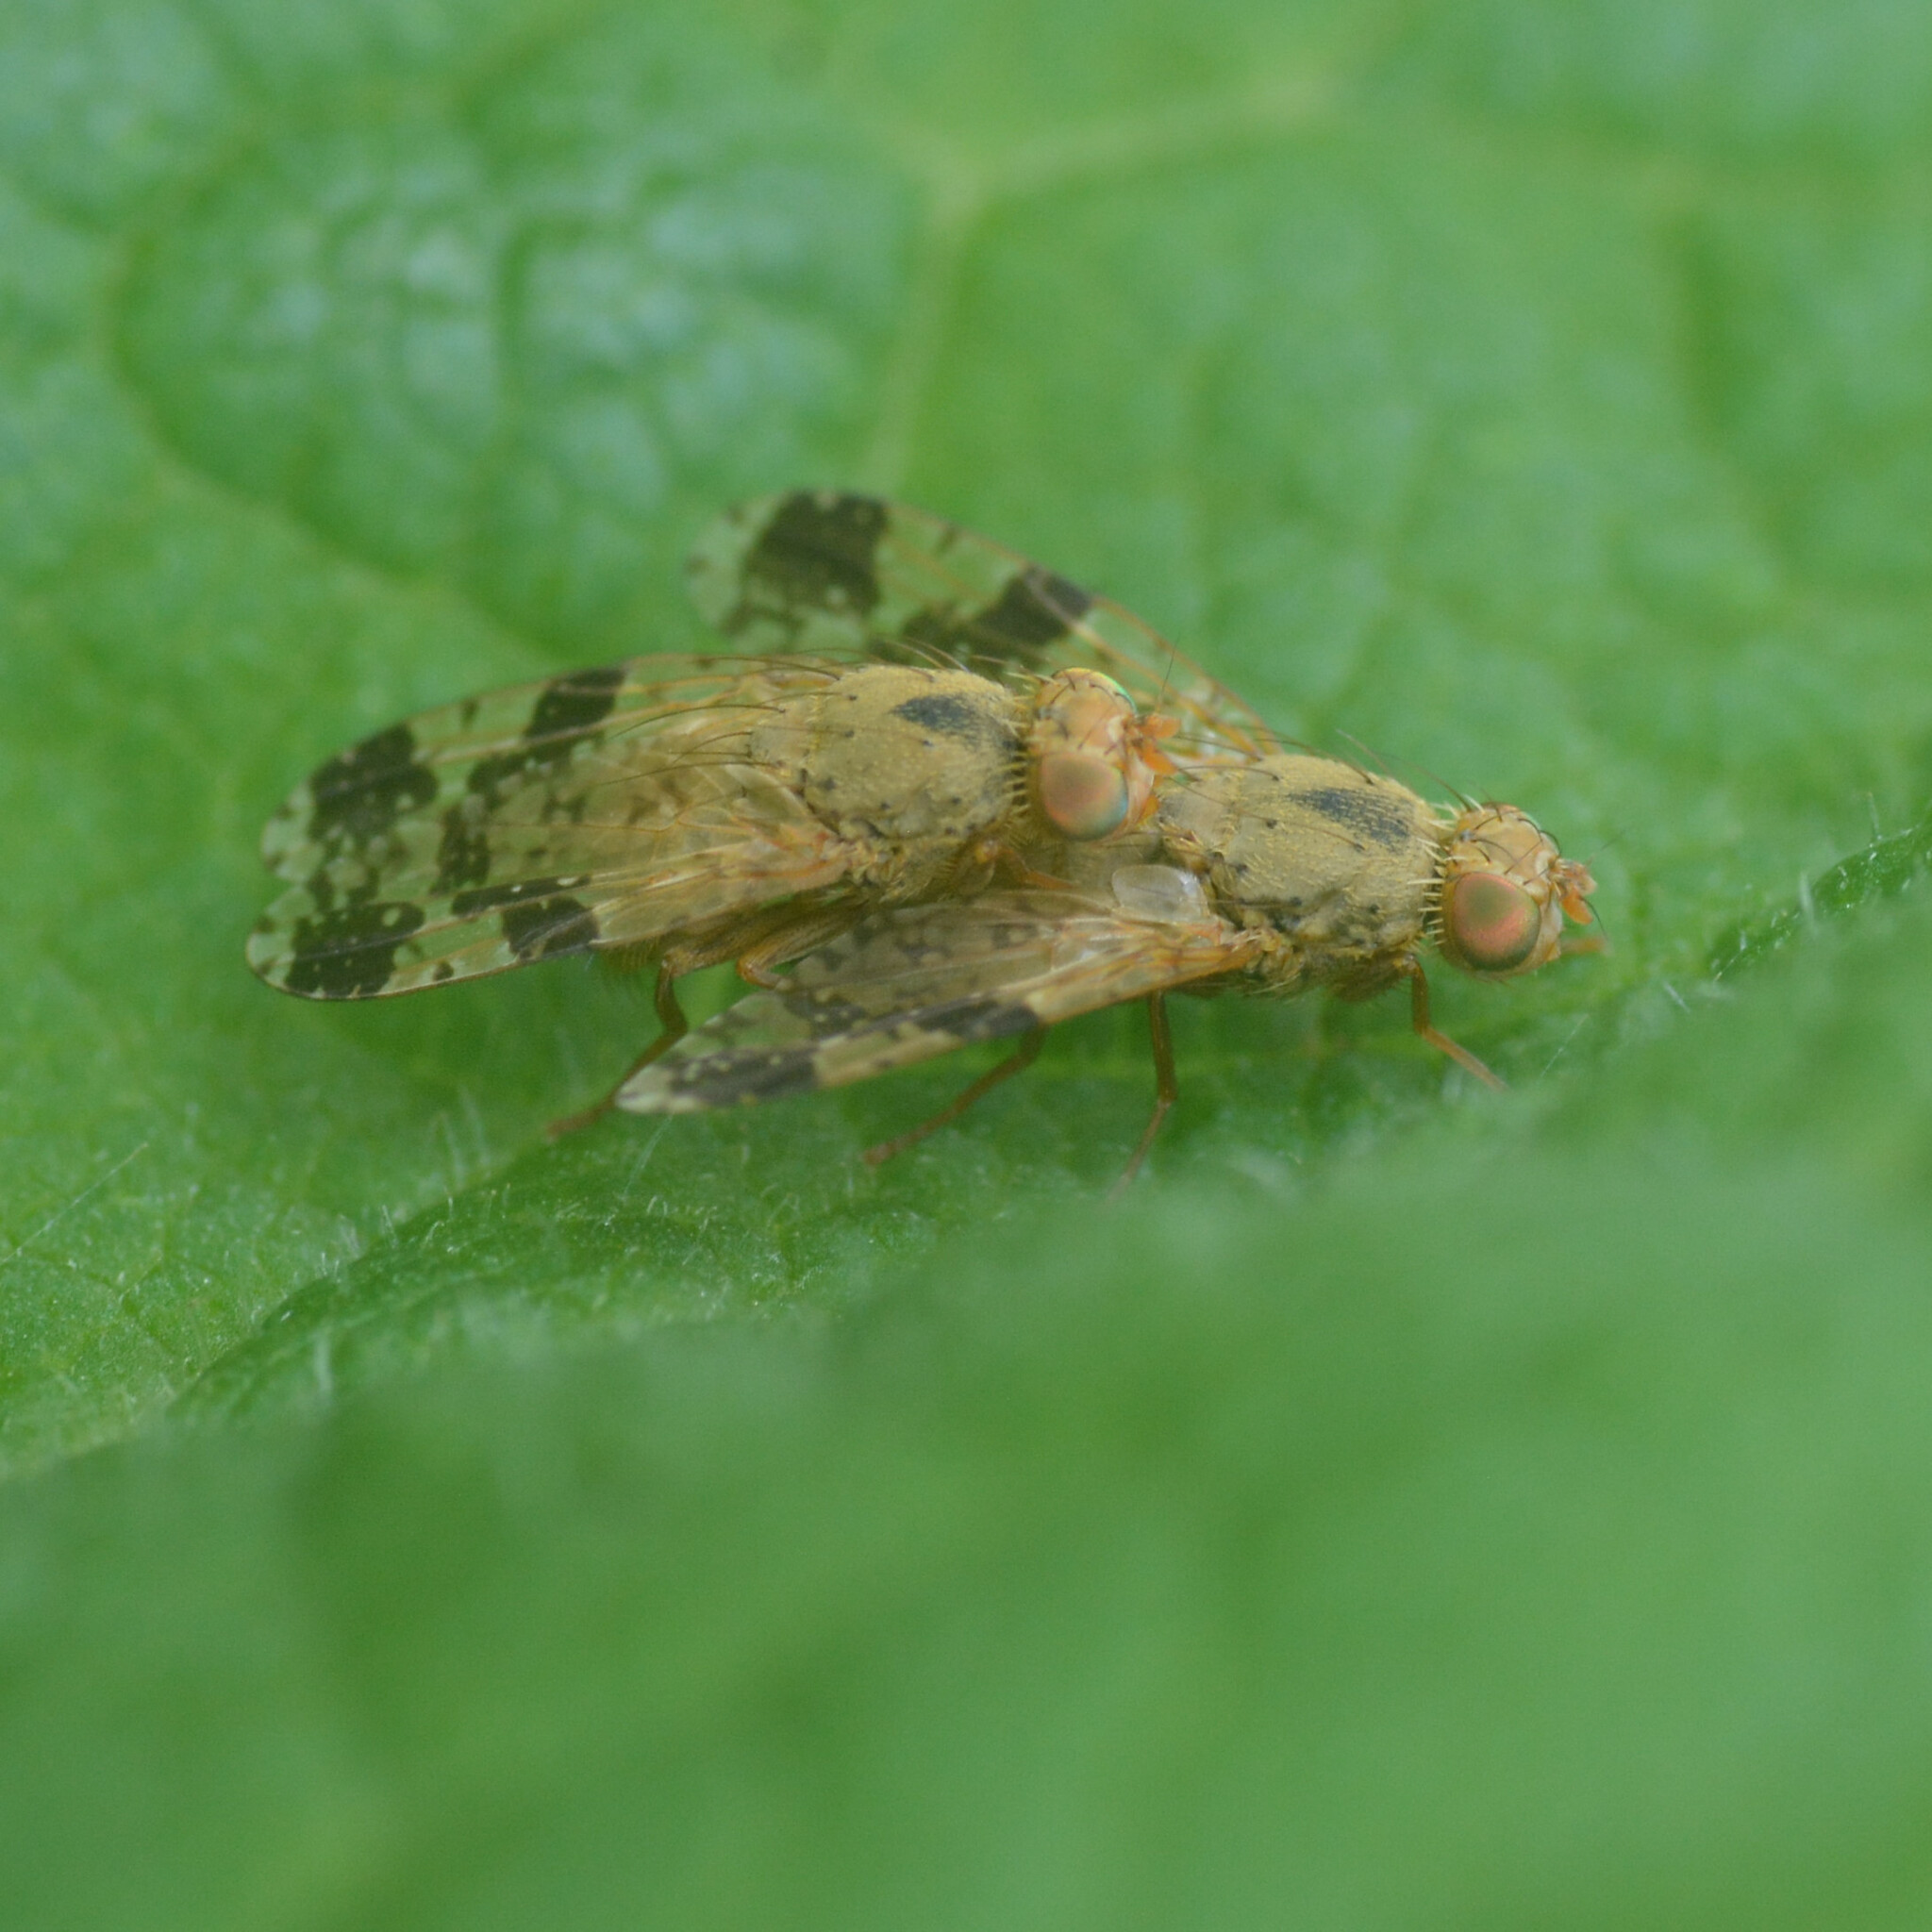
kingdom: Animalia
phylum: Arthropoda
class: Insecta
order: Diptera
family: Tephritidae
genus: Tephritis
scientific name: Tephritis bardanae
